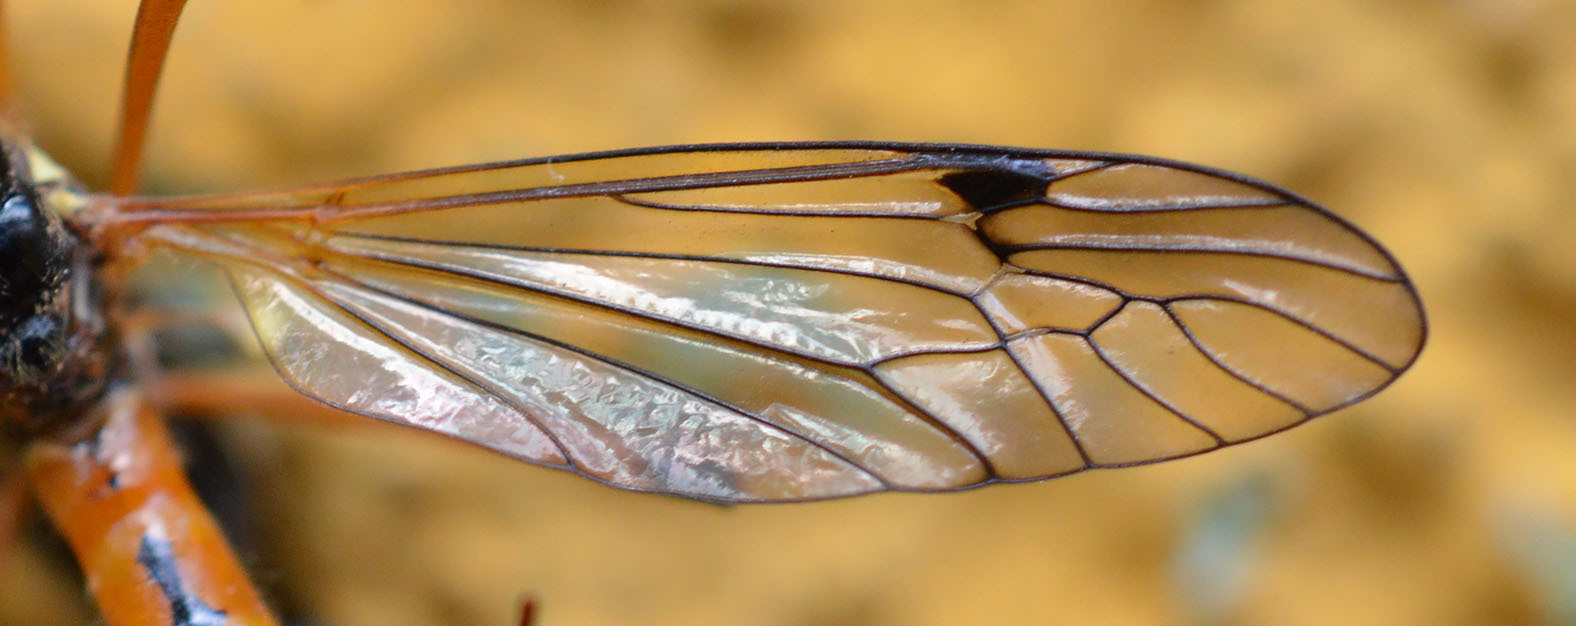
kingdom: Animalia
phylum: Arthropoda
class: Insecta
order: Diptera
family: Tipulidae
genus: Tanyptera
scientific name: Tanyptera atrata
